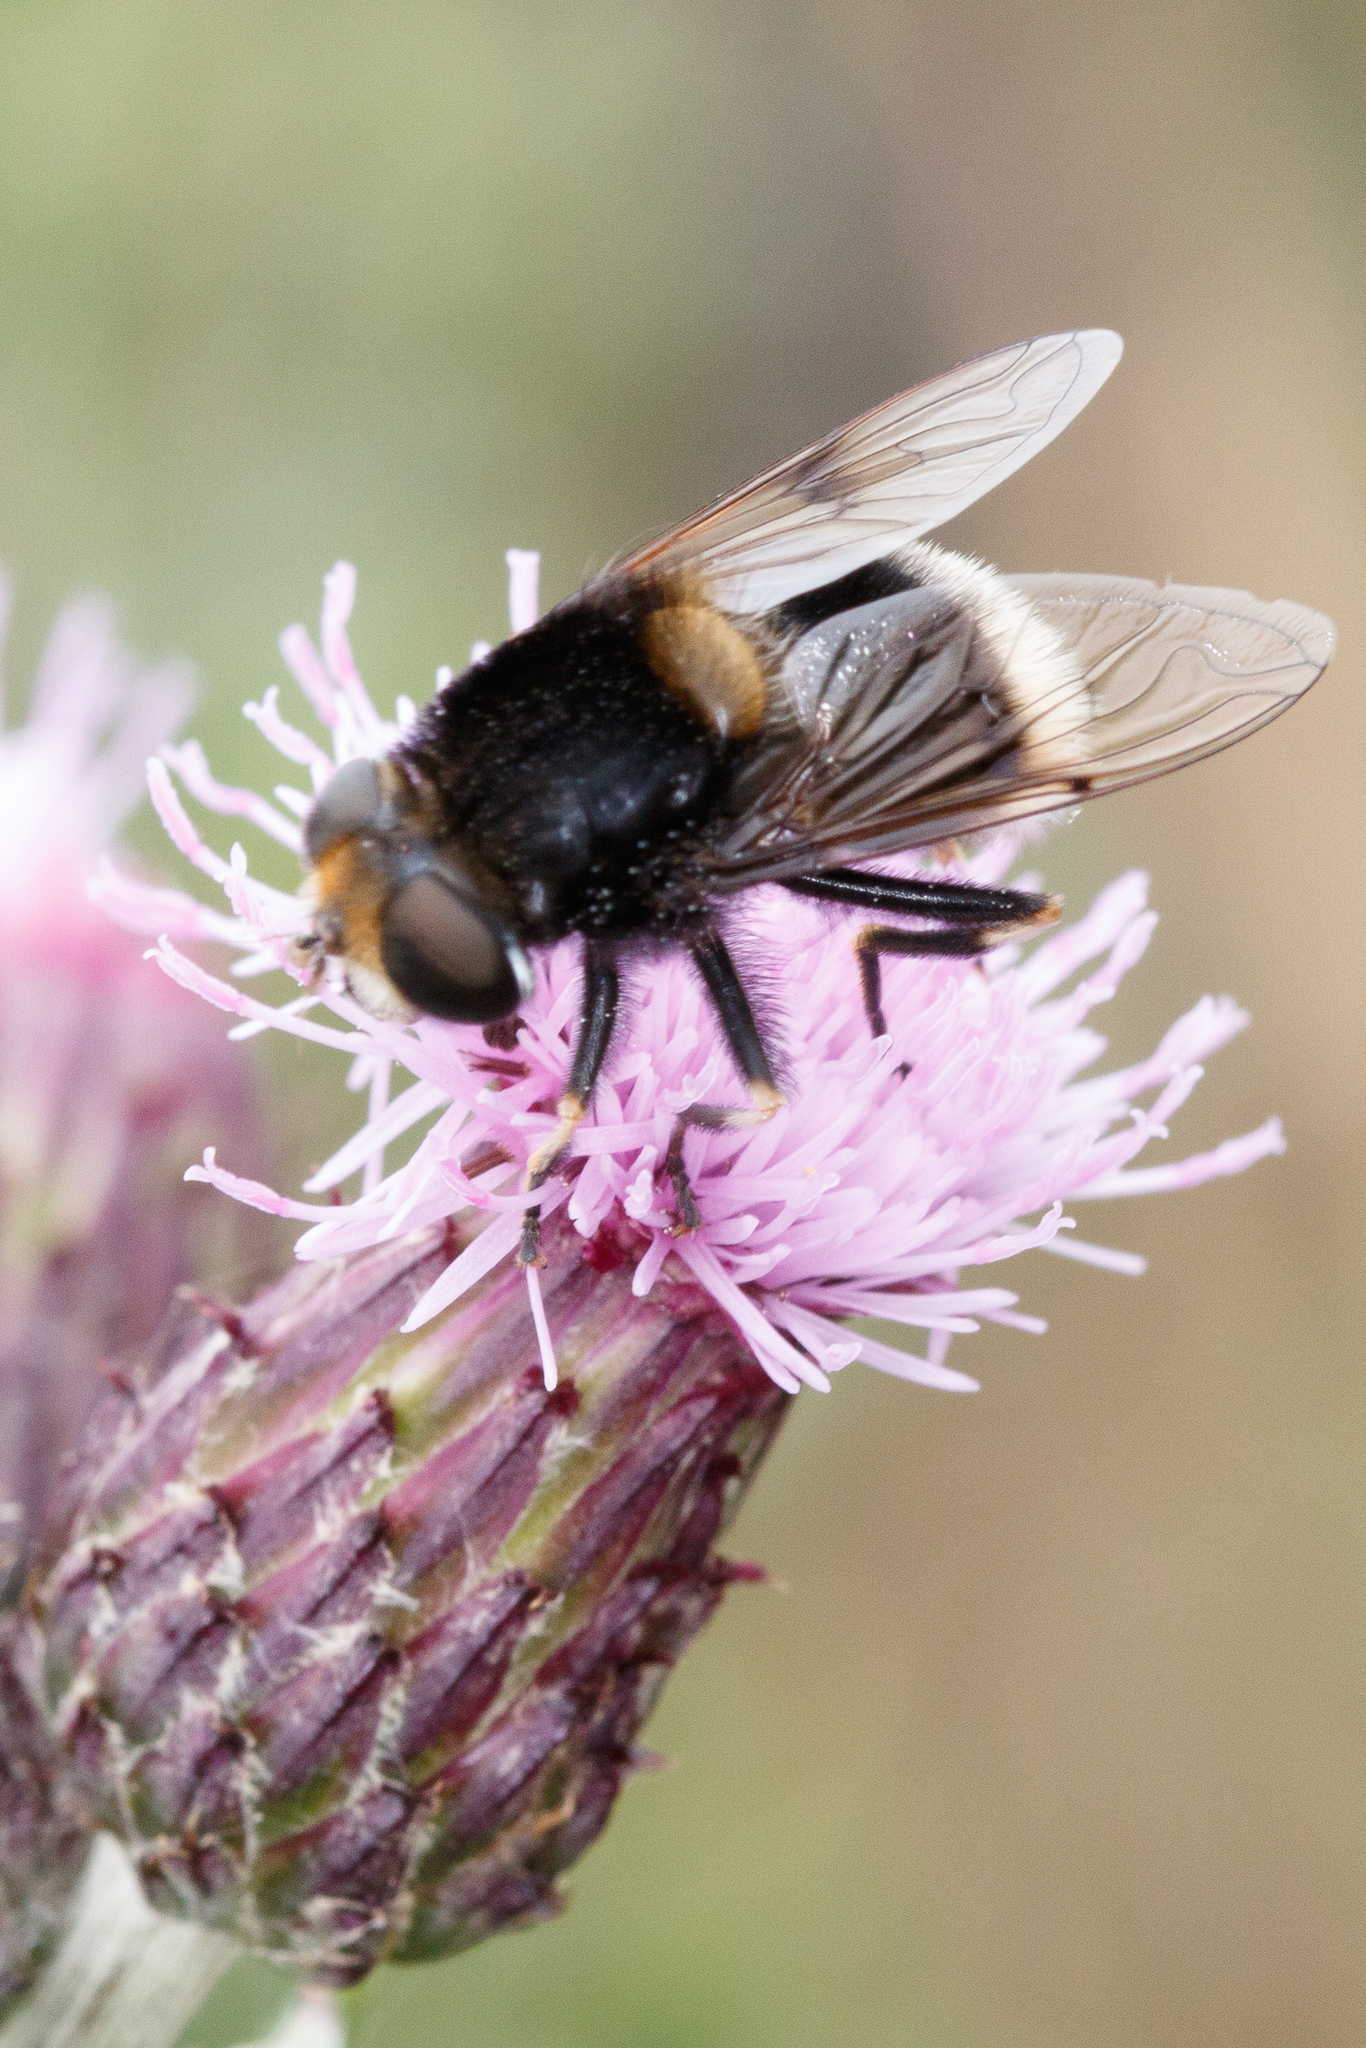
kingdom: Animalia
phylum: Arthropoda
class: Insecta
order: Diptera
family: Syrphidae
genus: Eristalis
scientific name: Eristalis intricaria
